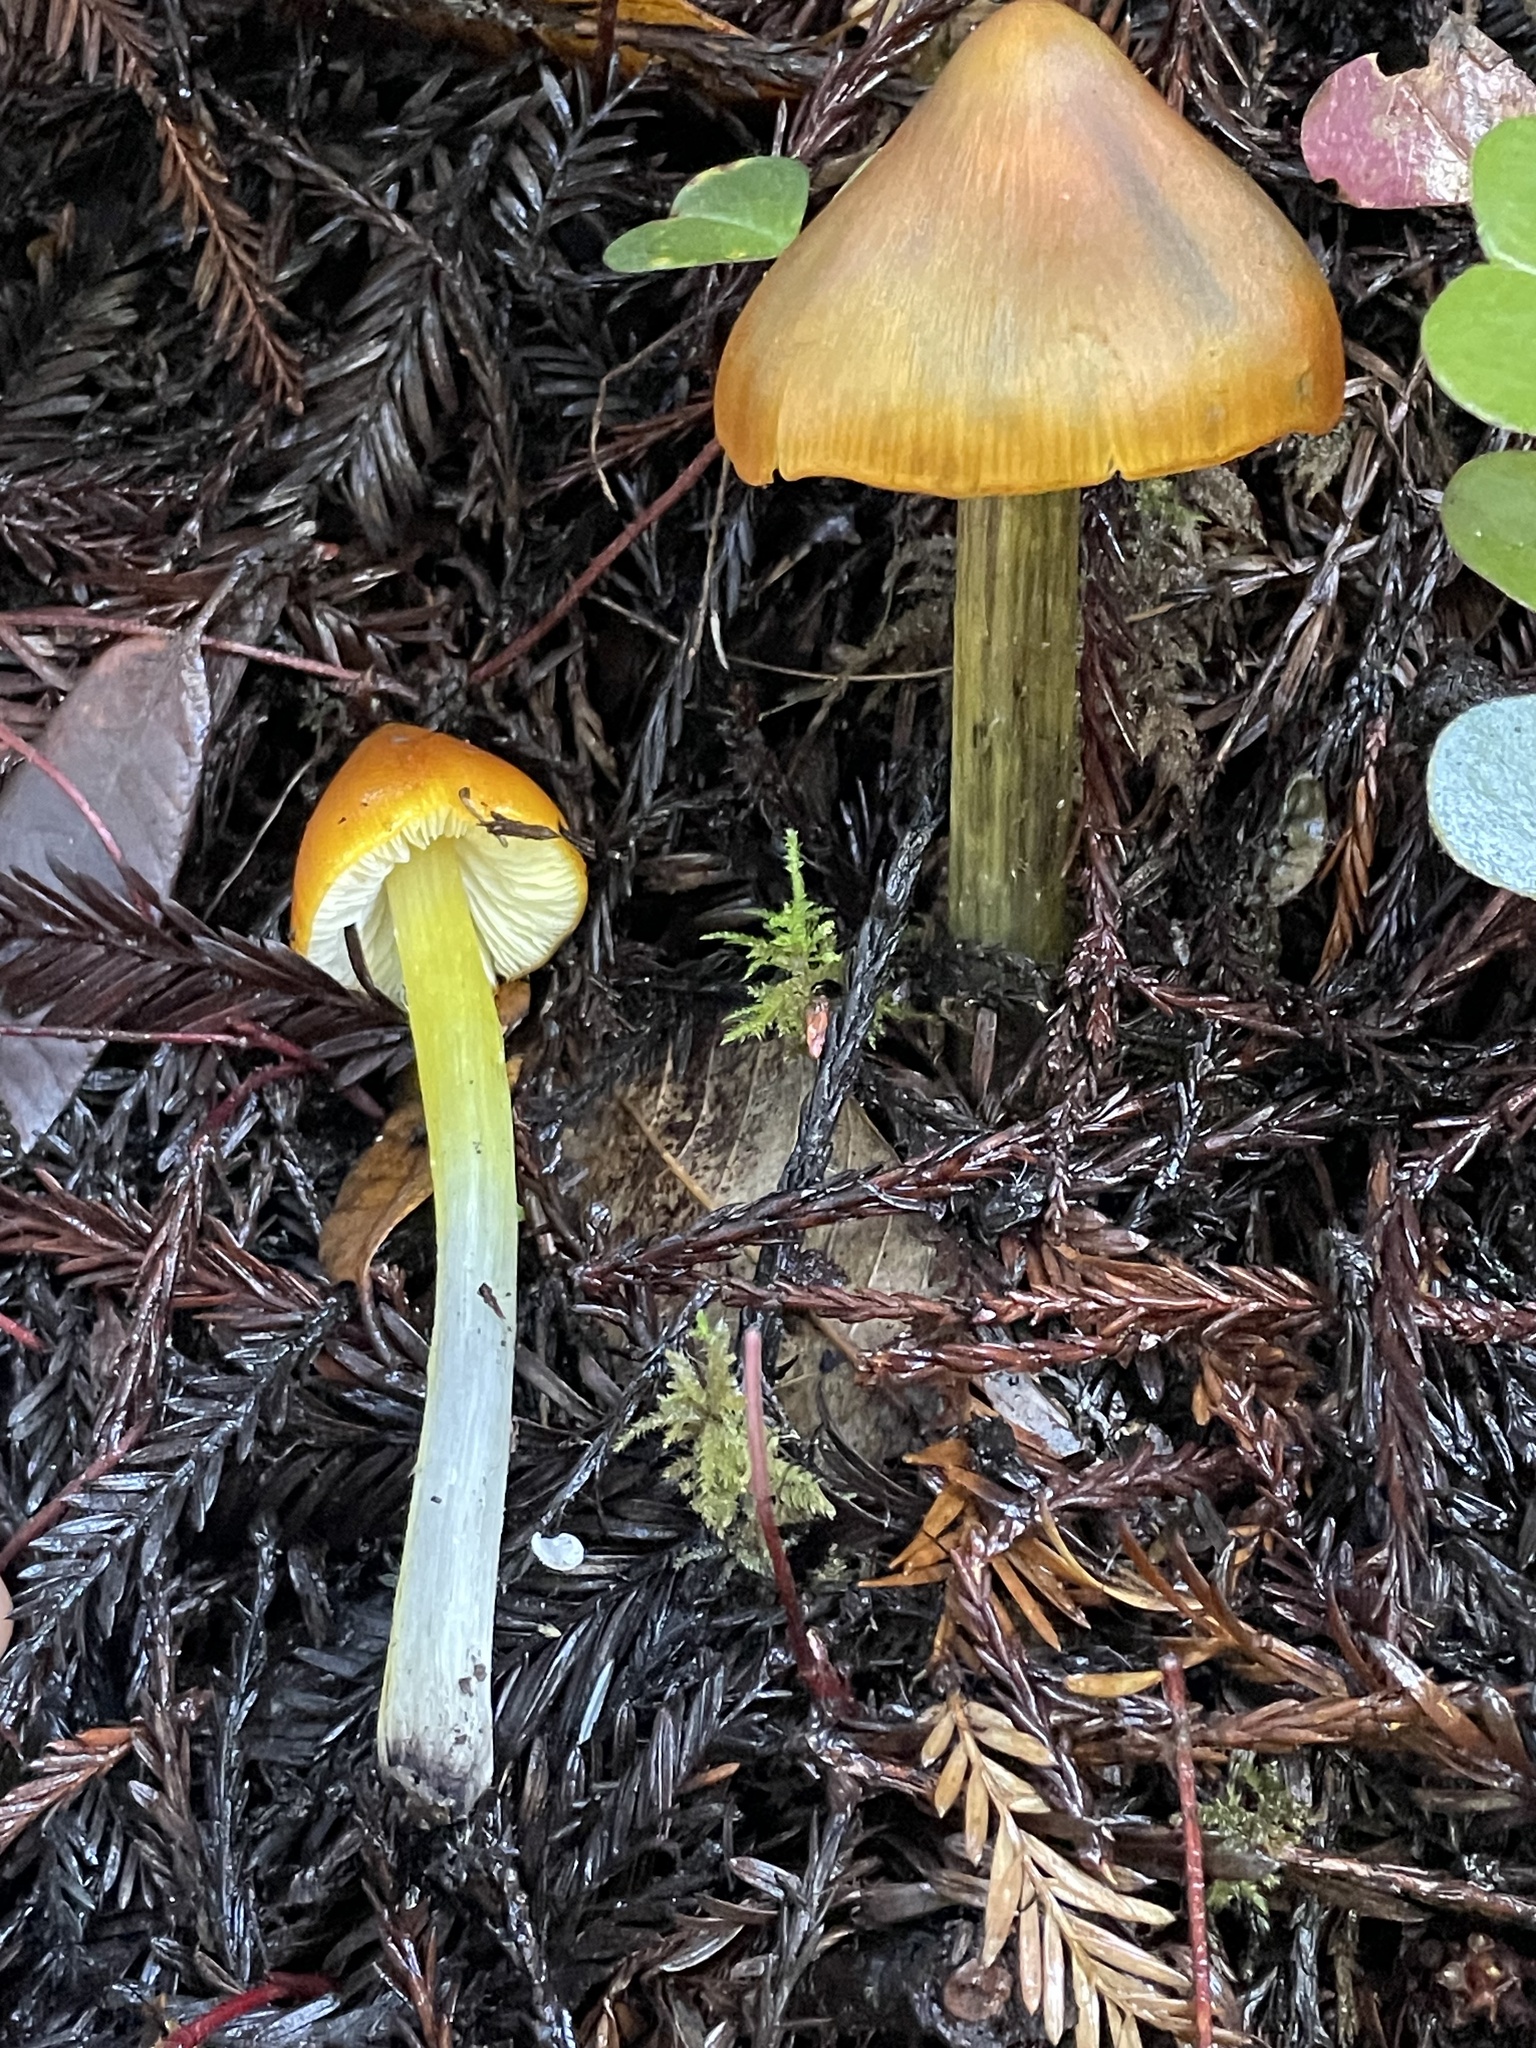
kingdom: Fungi
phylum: Basidiomycota
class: Agaricomycetes
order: Agaricales
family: Hygrophoraceae
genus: Hygrocybe
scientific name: Hygrocybe singeri
